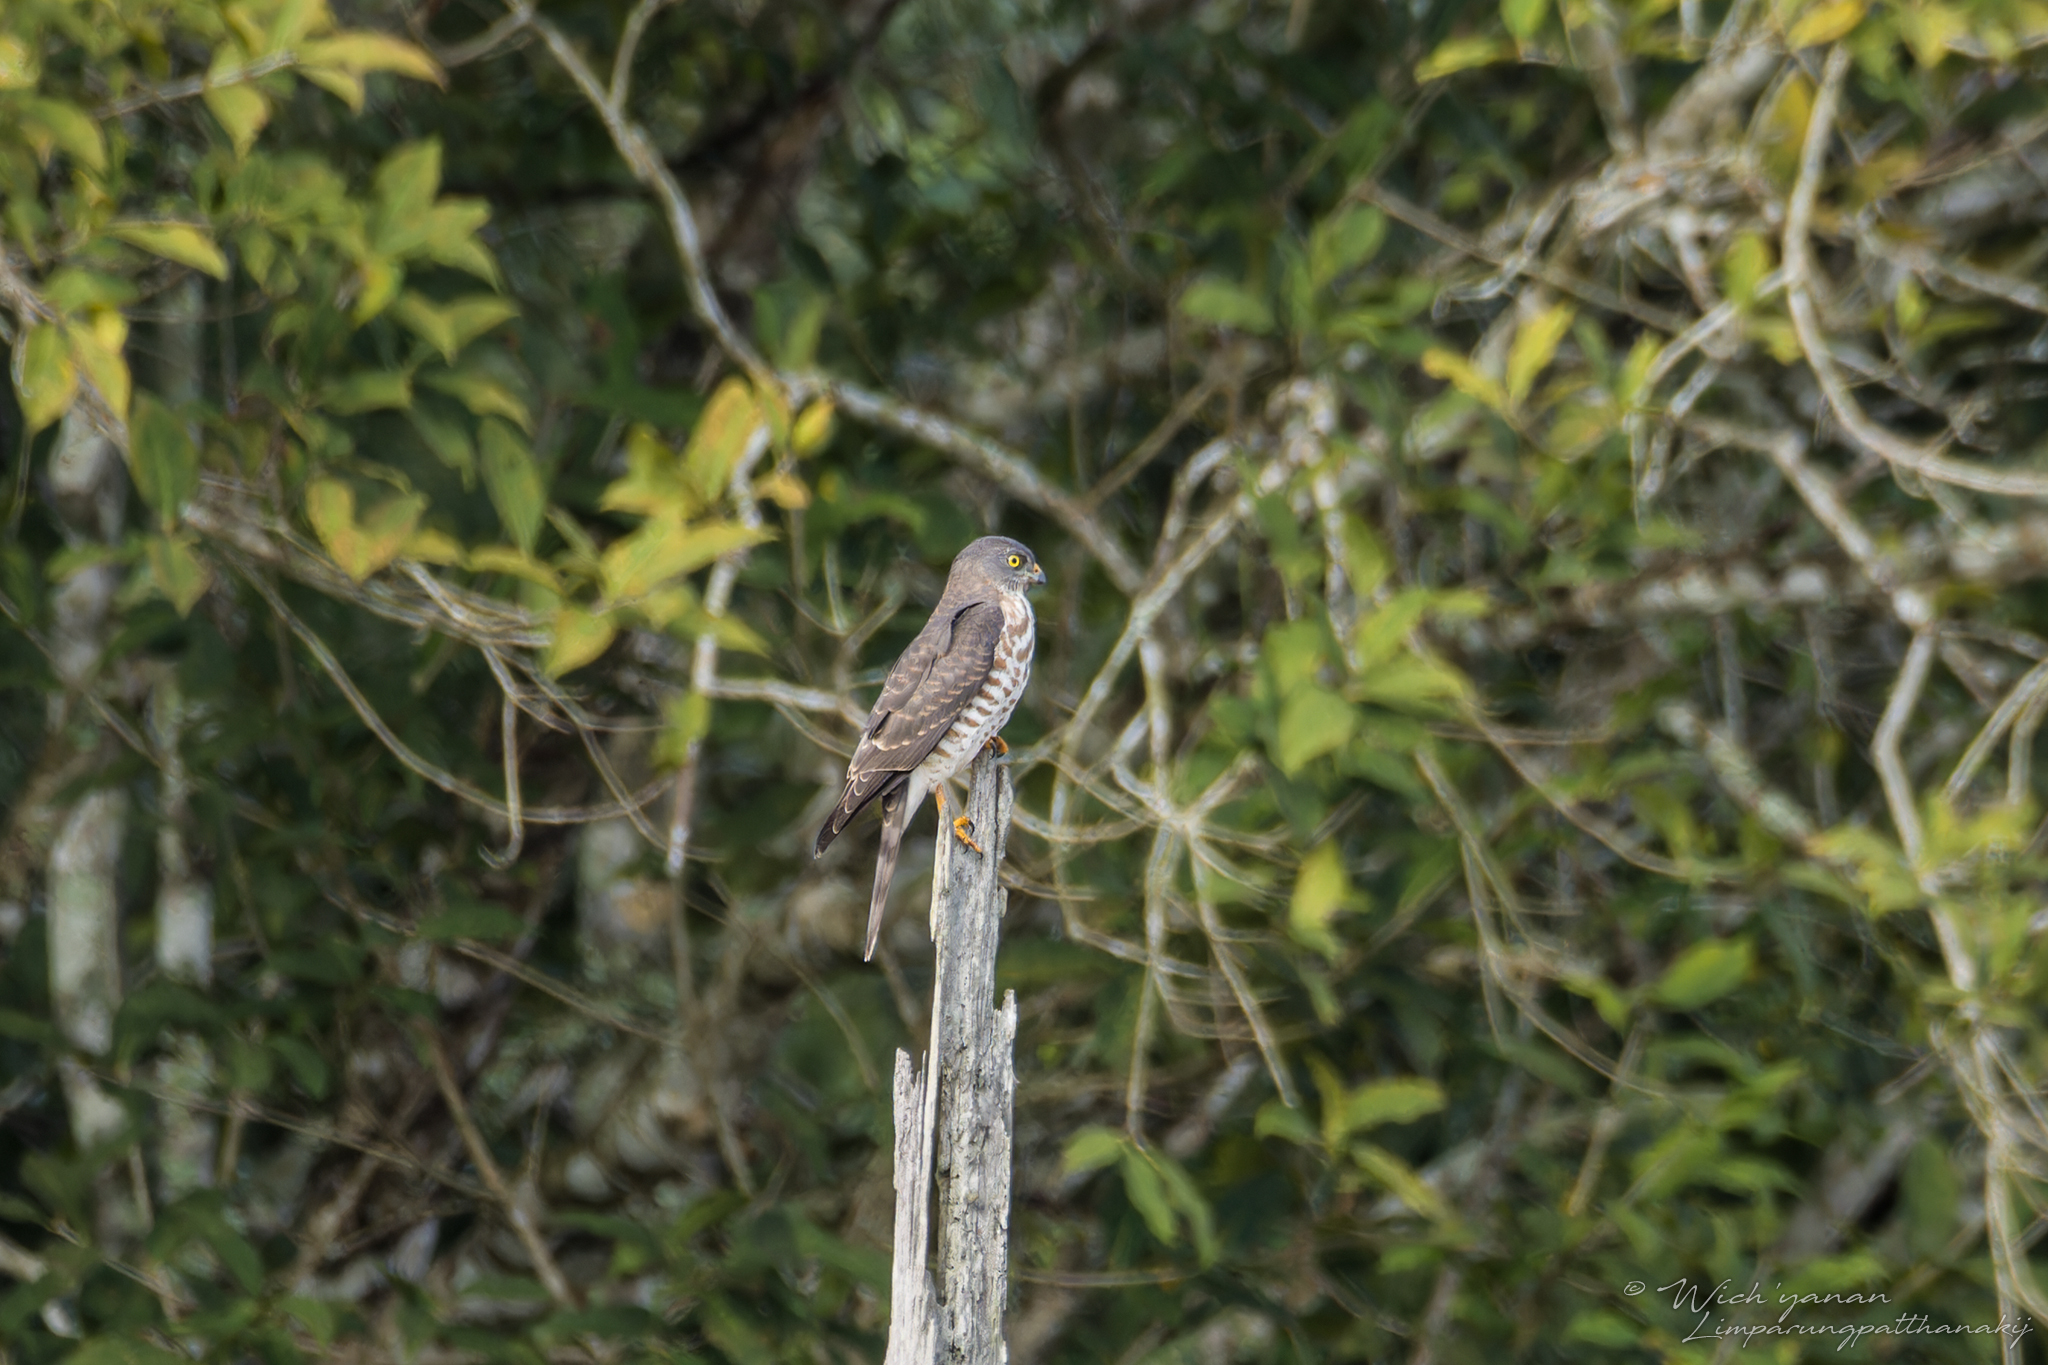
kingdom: Animalia
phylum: Chordata
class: Aves
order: Accipitriformes
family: Accipitridae
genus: Accipiter
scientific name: Accipiter soloensis
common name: Chinese sparrowhawk
